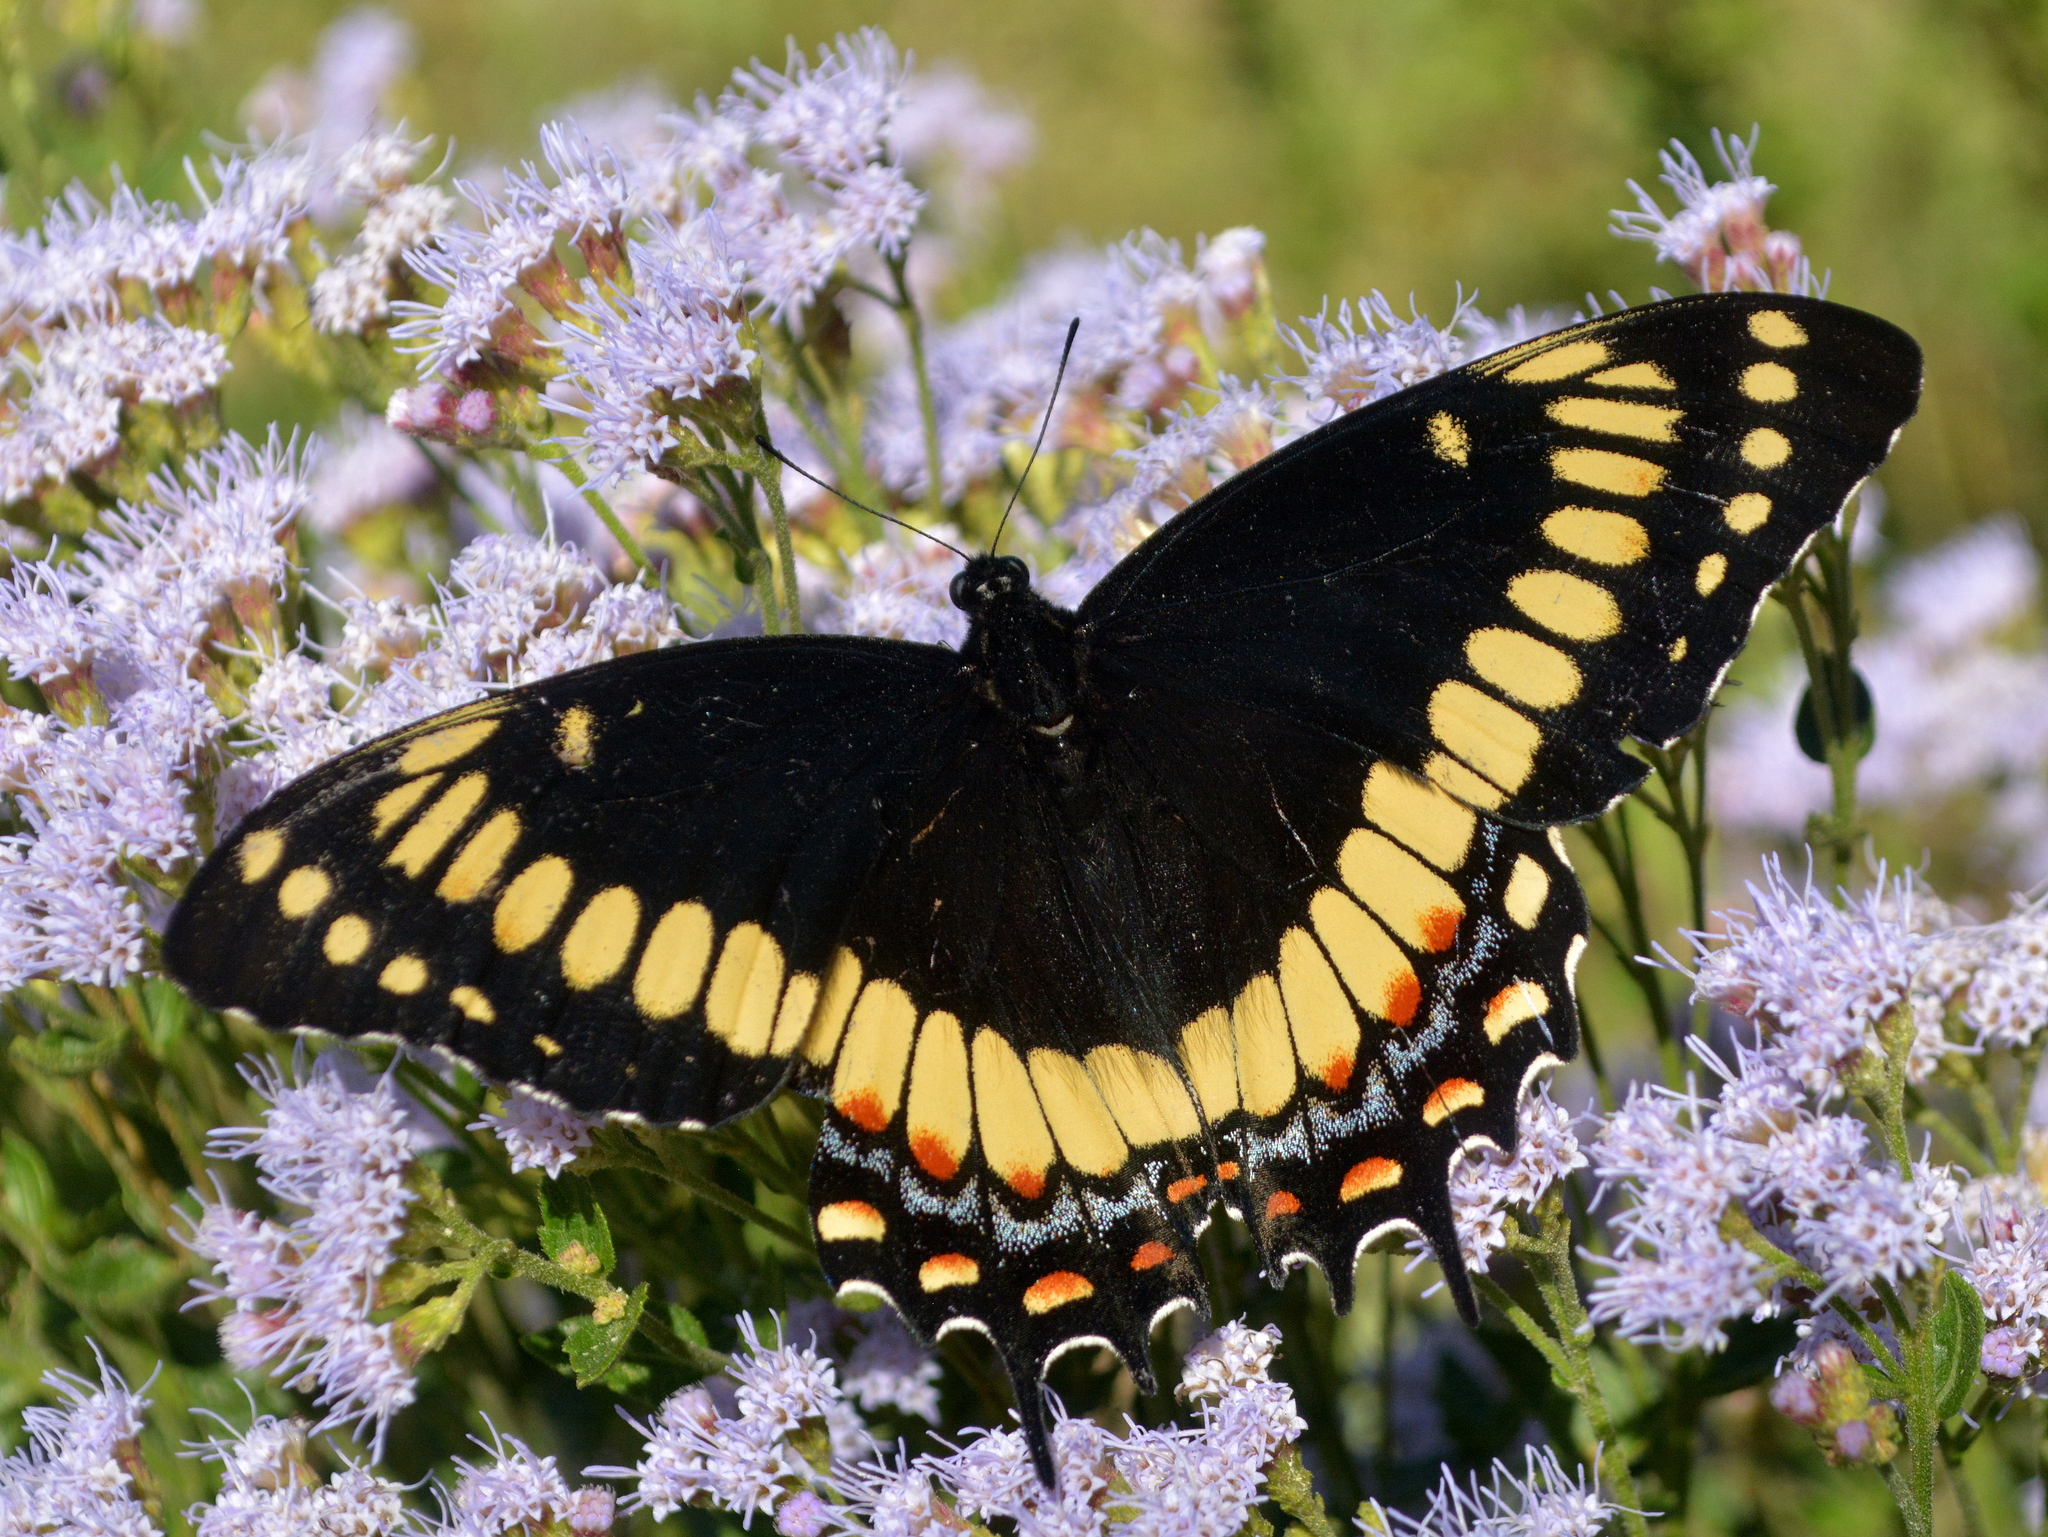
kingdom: Animalia
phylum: Arthropoda
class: Insecta
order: Lepidoptera
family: Papilionidae
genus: Papilio
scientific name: Papilio scamander
